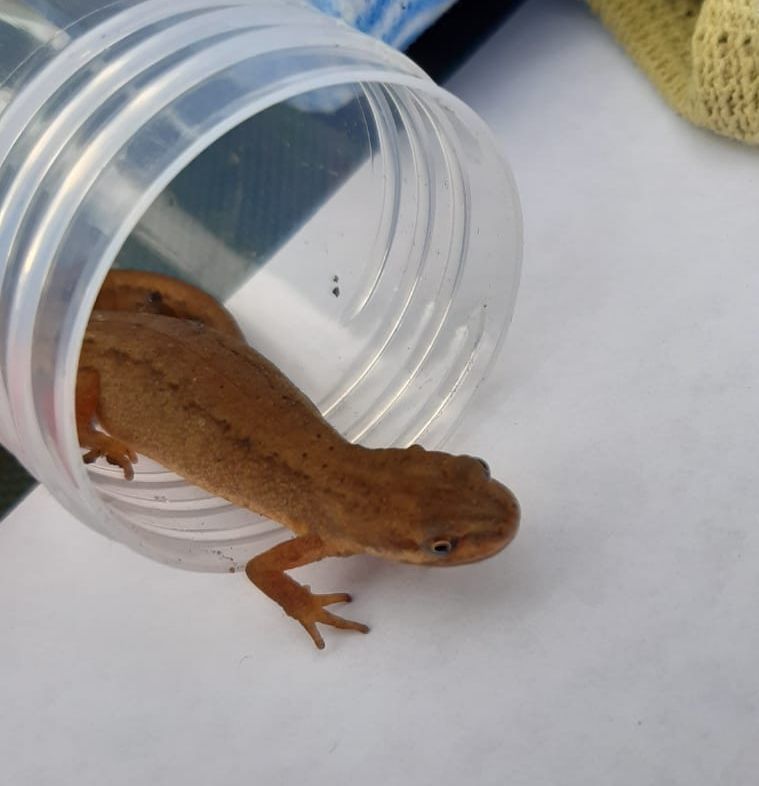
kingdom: Animalia
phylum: Chordata
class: Amphibia
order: Caudata
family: Salamandridae
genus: Lissotriton
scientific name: Lissotriton vulgaris
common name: Smooth newt
